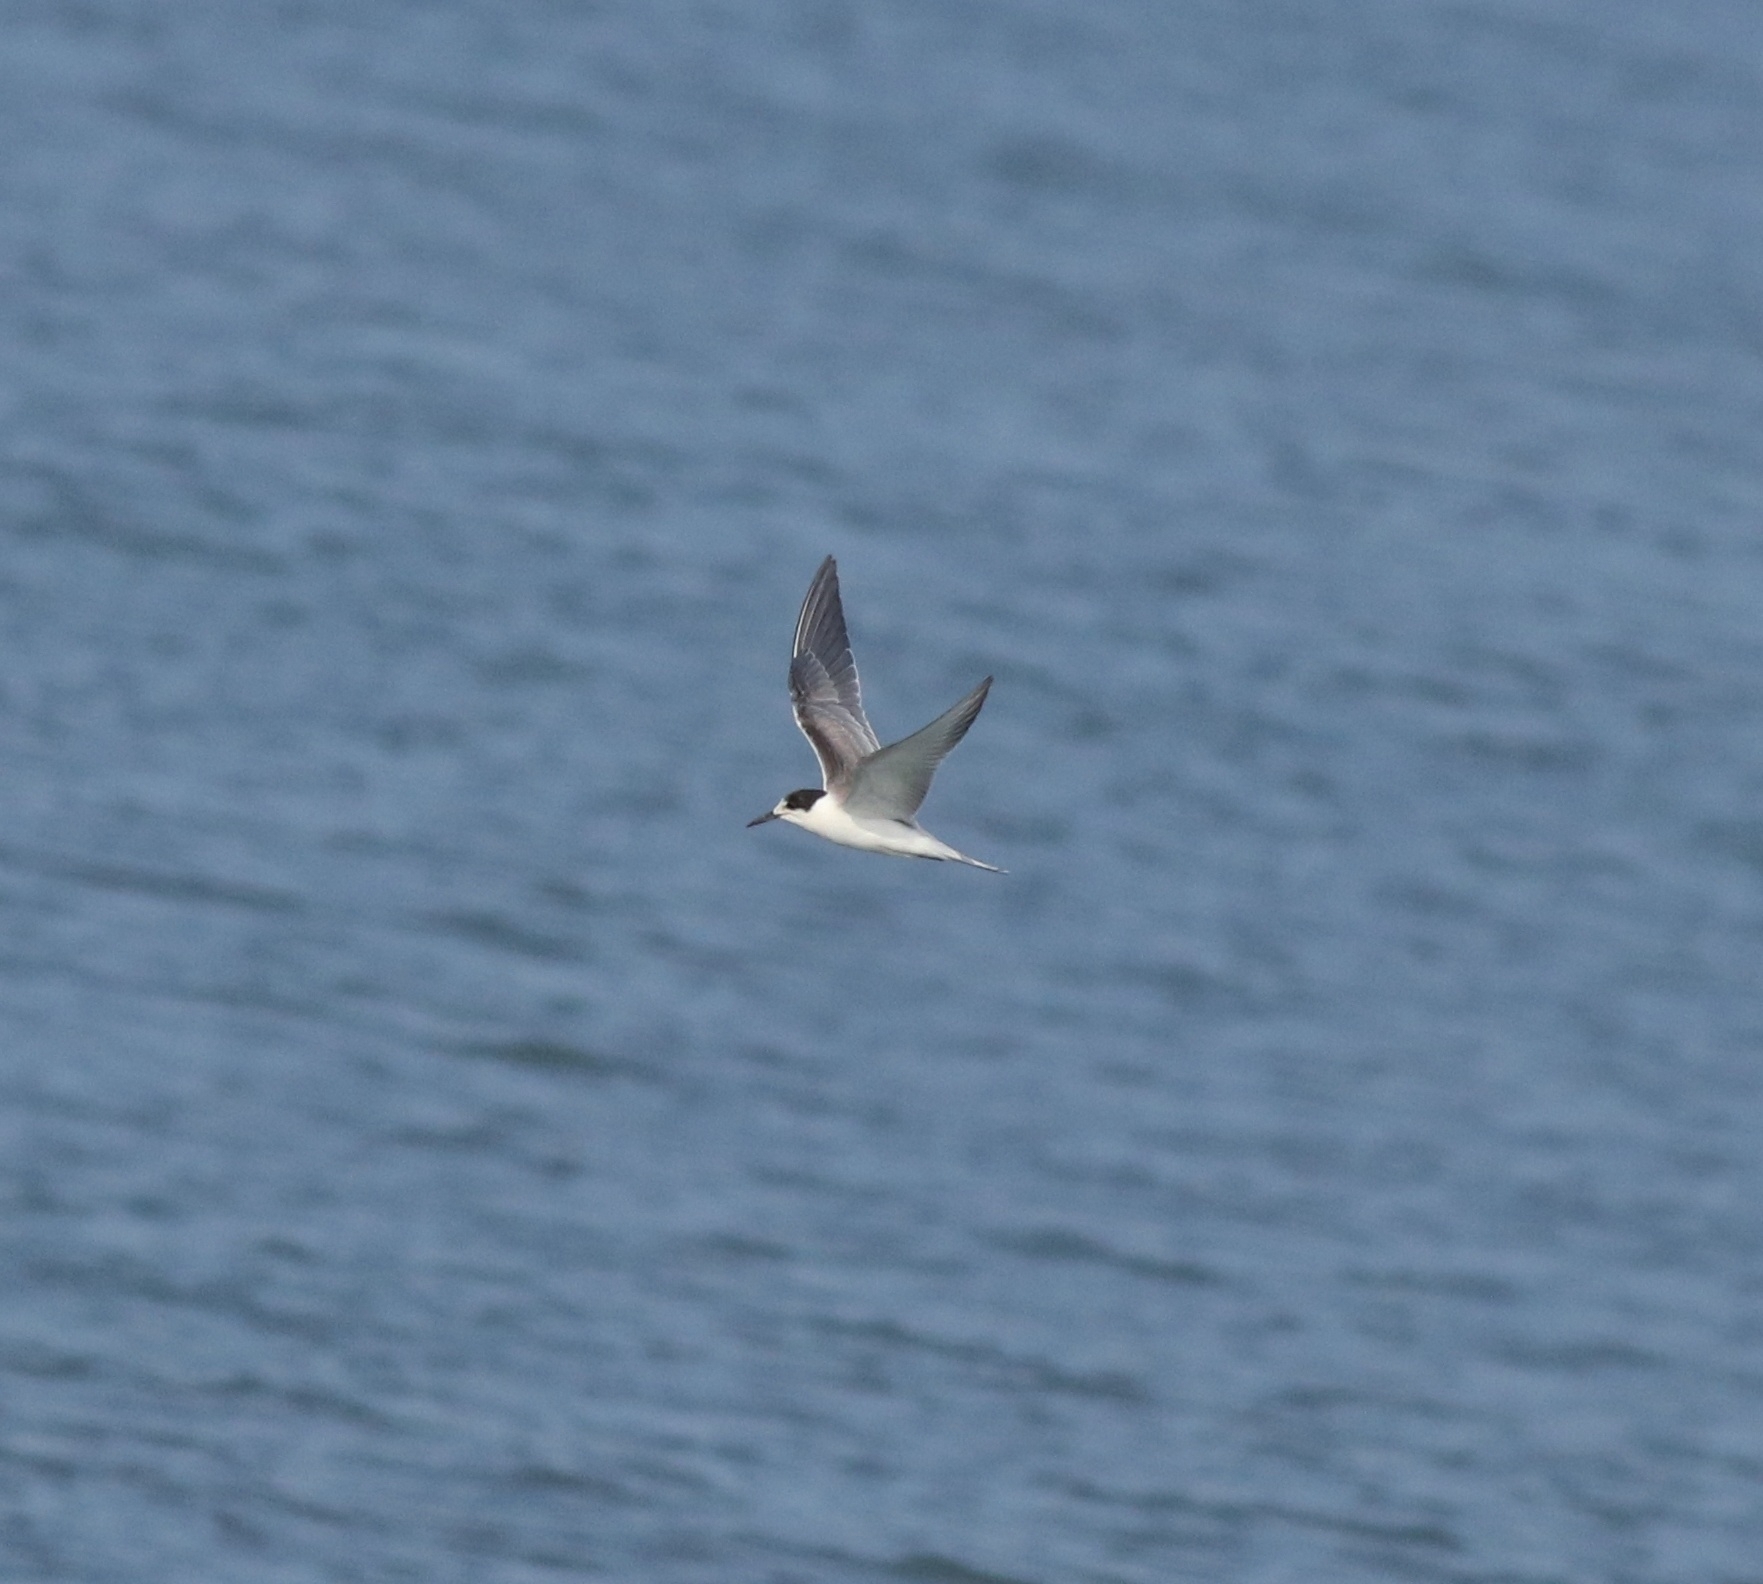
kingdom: Animalia
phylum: Chordata
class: Aves
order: Charadriiformes
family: Laridae
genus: Sterna
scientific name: Sterna hirundo
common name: Common tern
